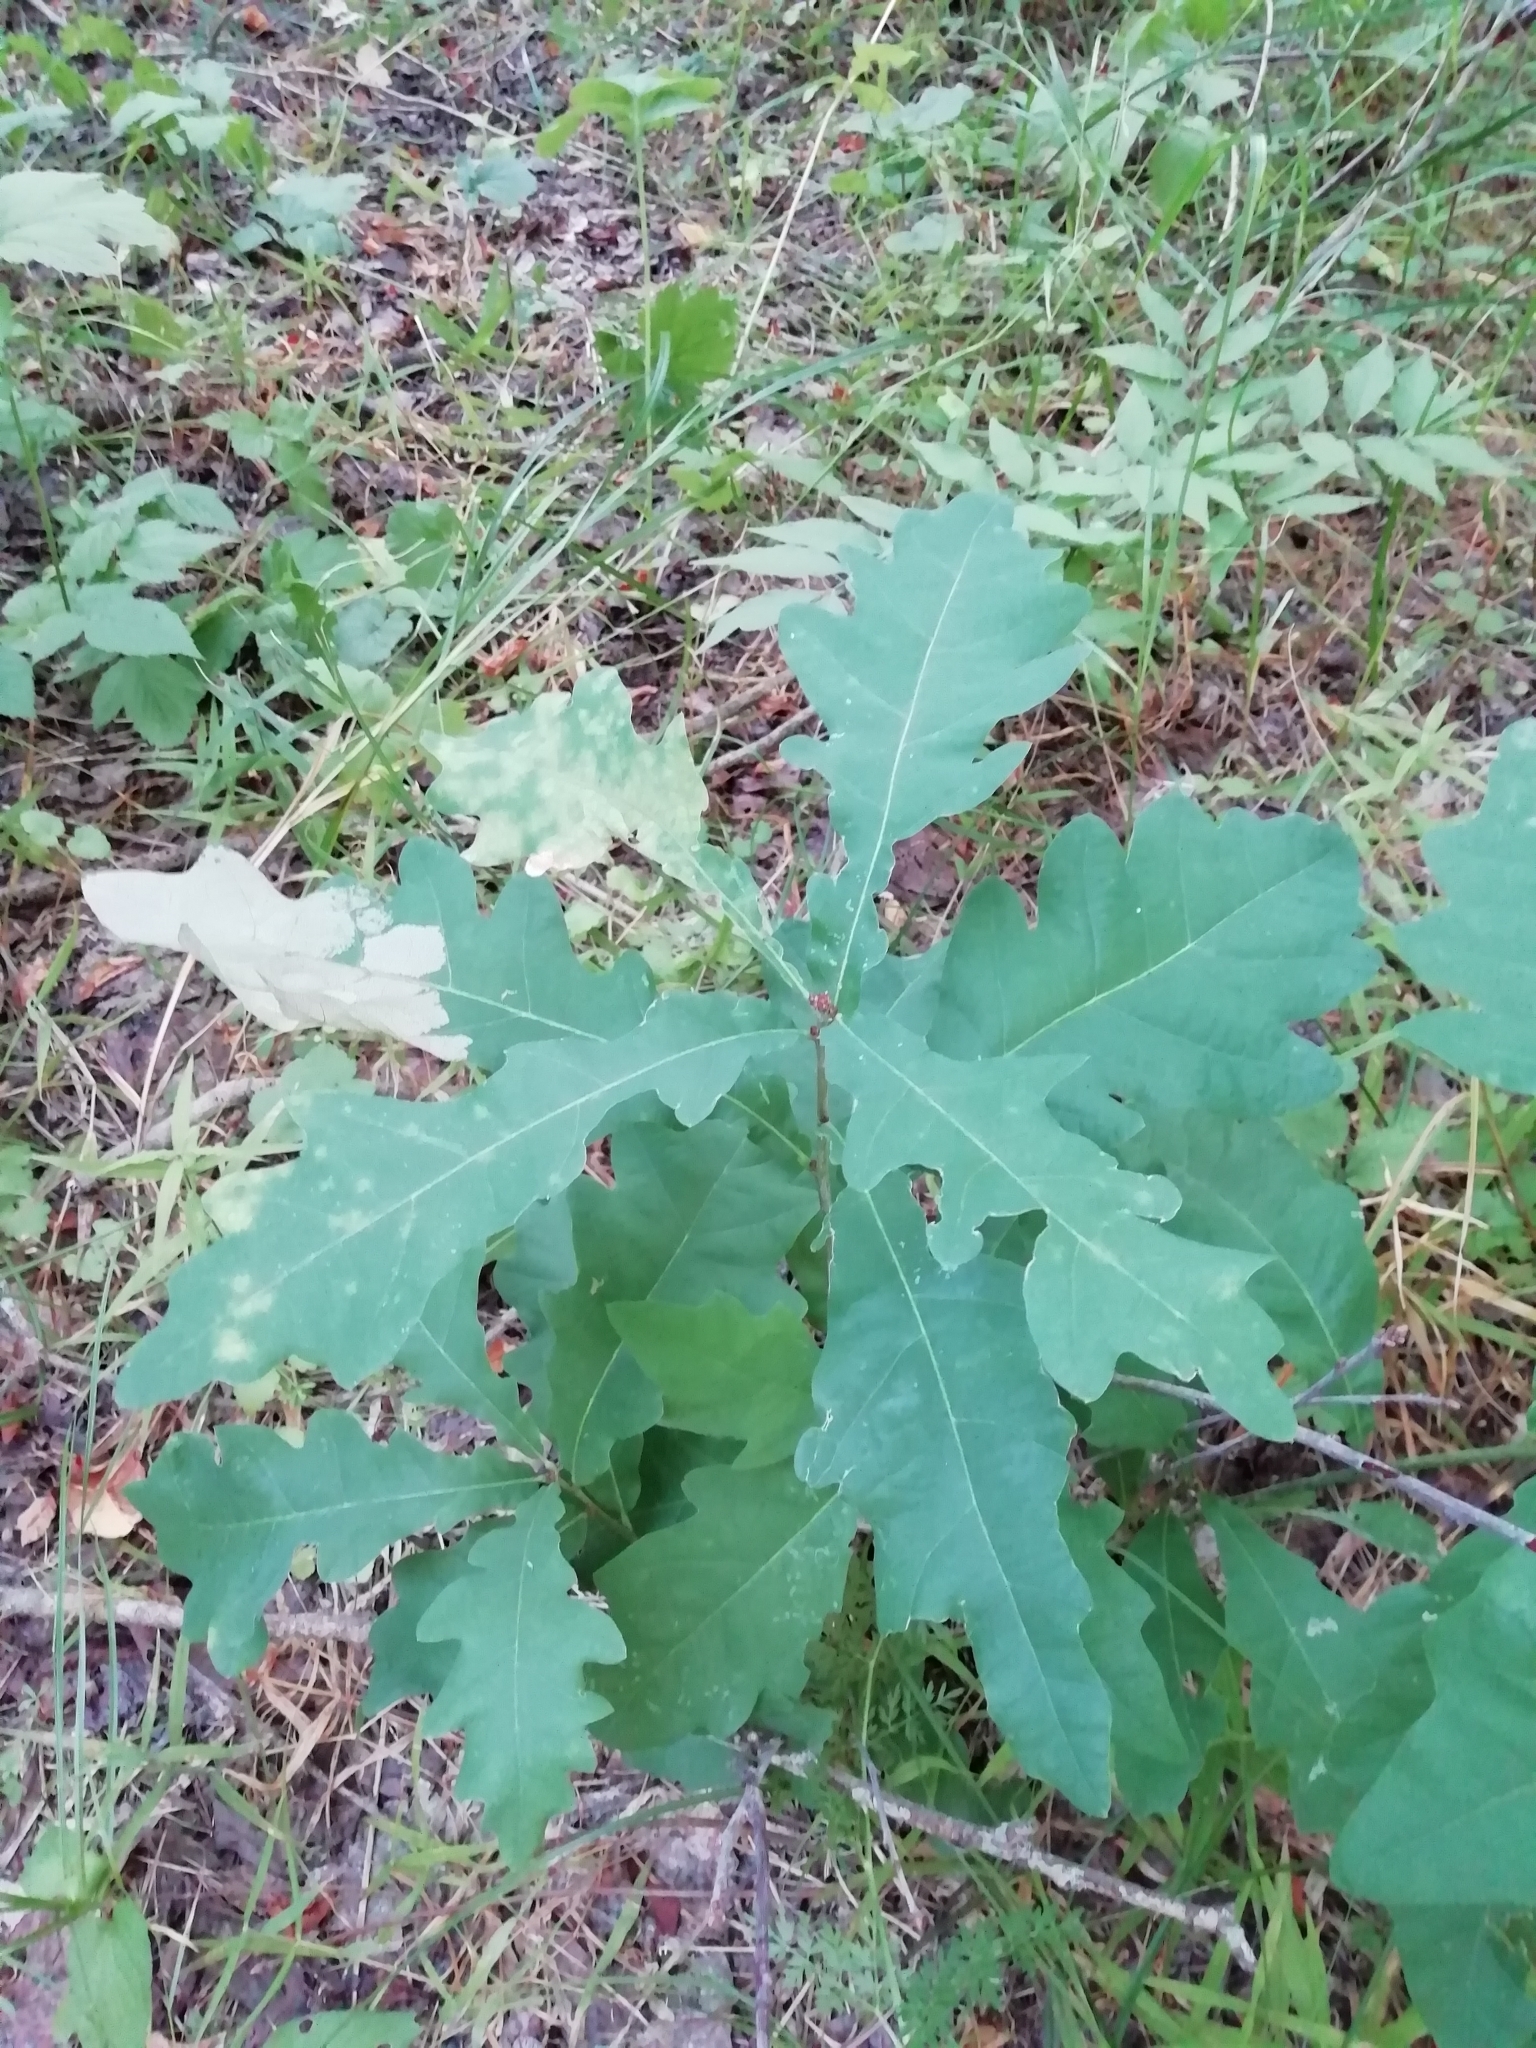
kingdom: Plantae
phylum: Tracheophyta
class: Magnoliopsida
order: Fagales
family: Fagaceae
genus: Quercus
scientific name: Quercus robur
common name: Pedunculate oak
